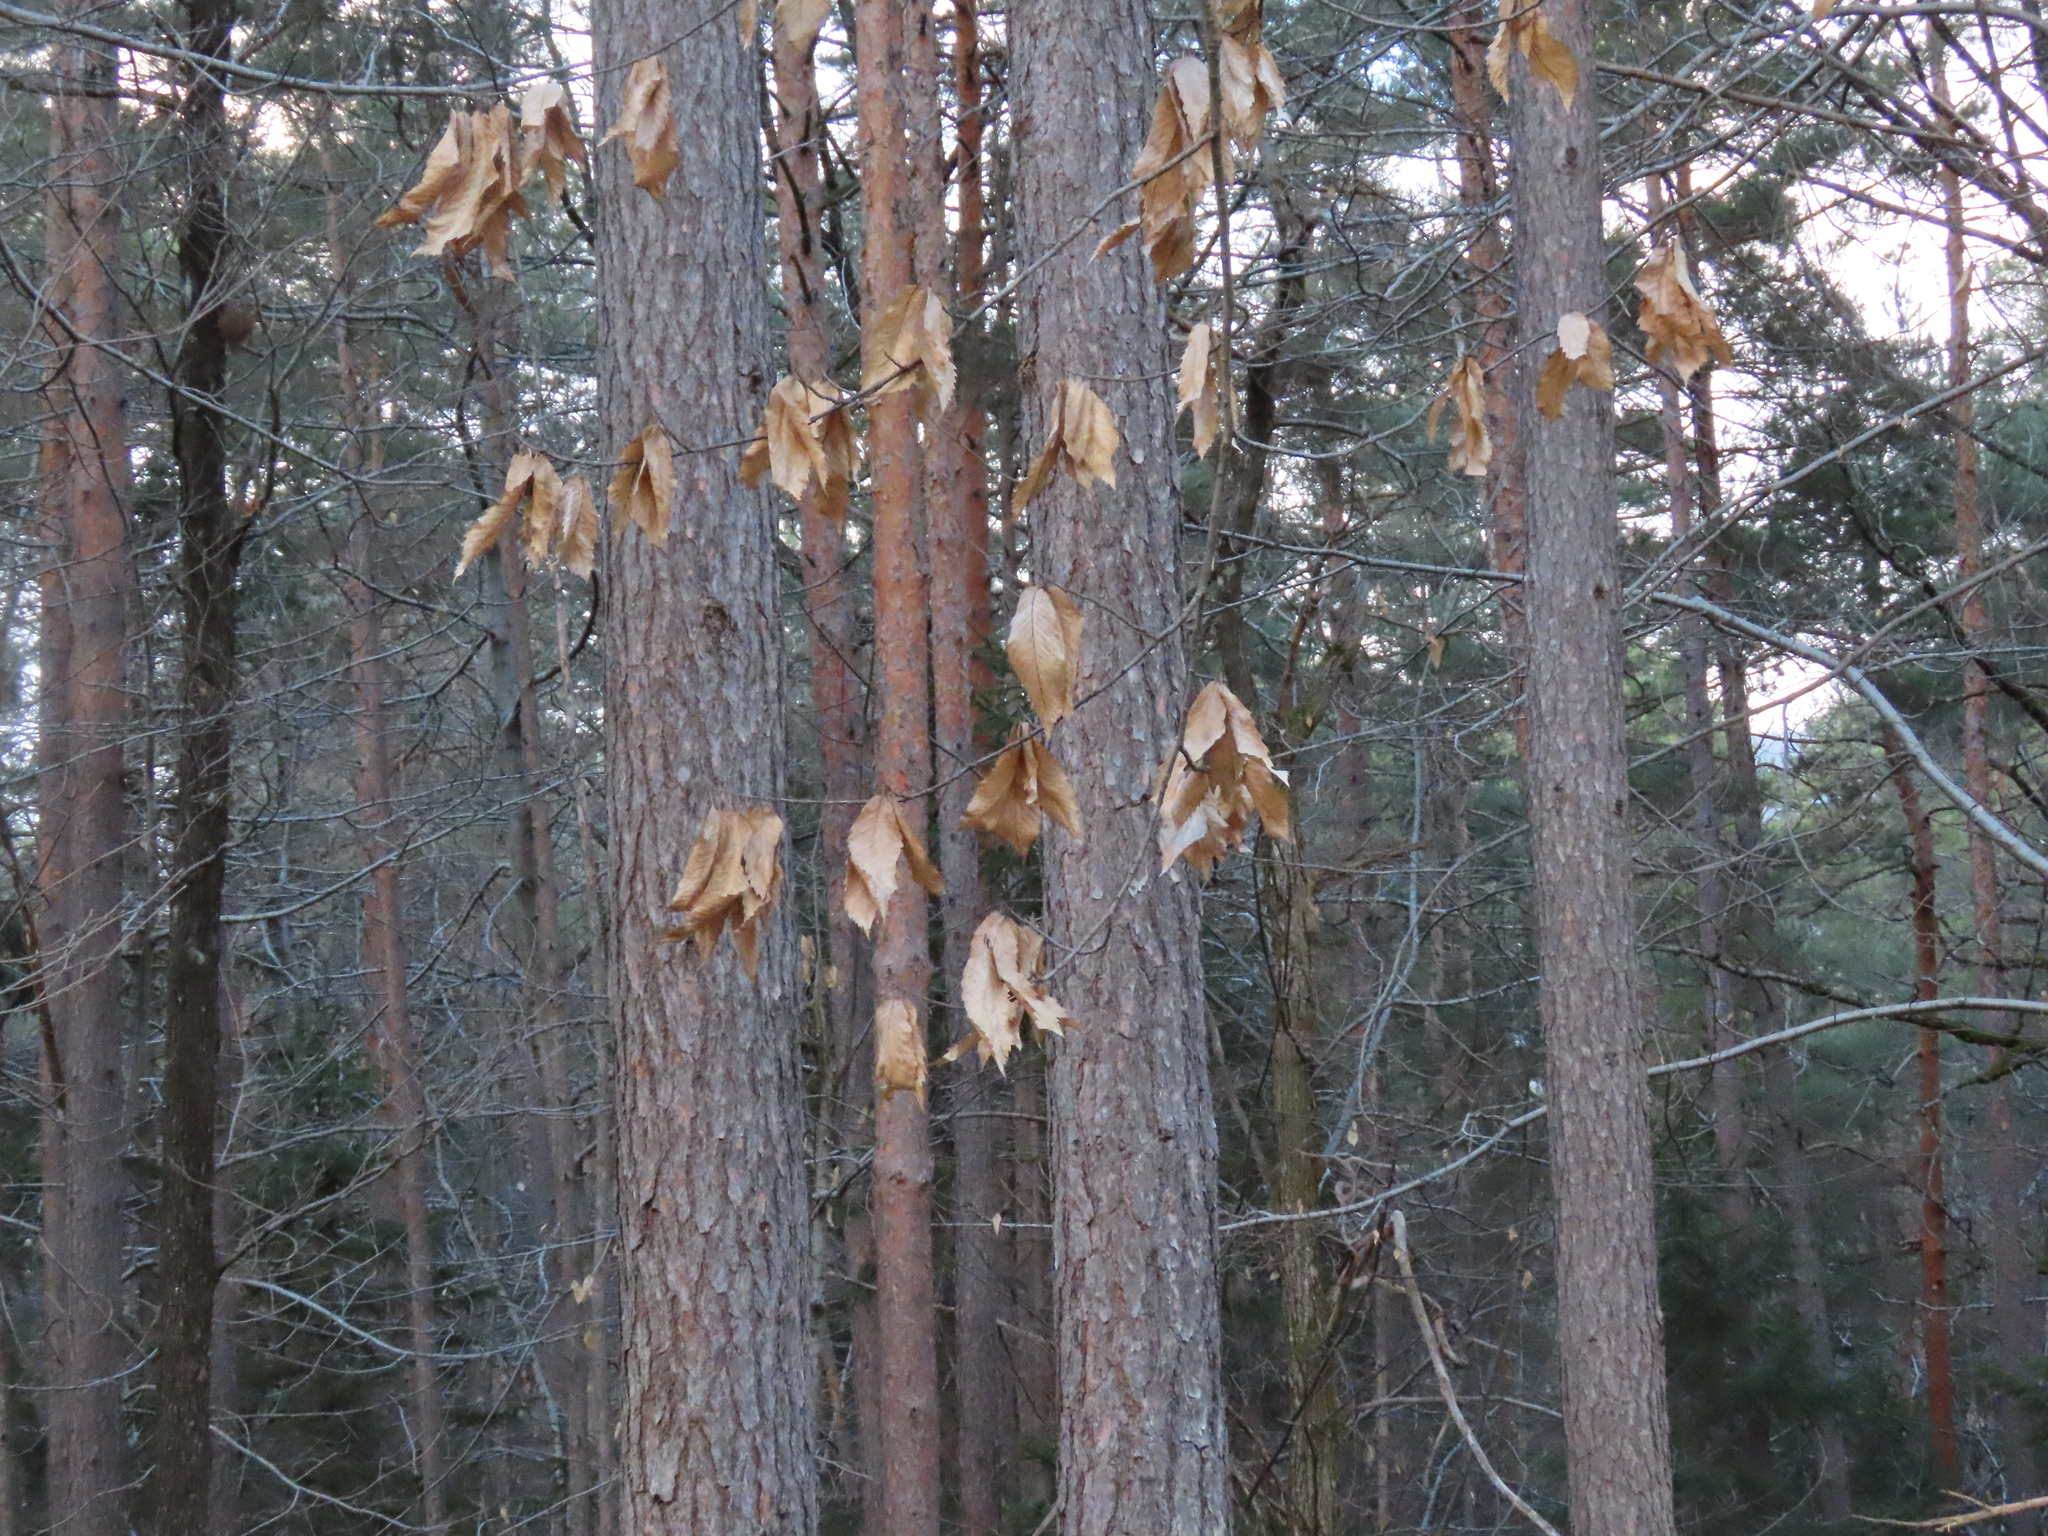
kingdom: Plantae
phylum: Tracheophyta
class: Magnoliopsida
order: Fagales
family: Fagaceae
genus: Castanea
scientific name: Castanea sativa
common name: Sweet chestnut
